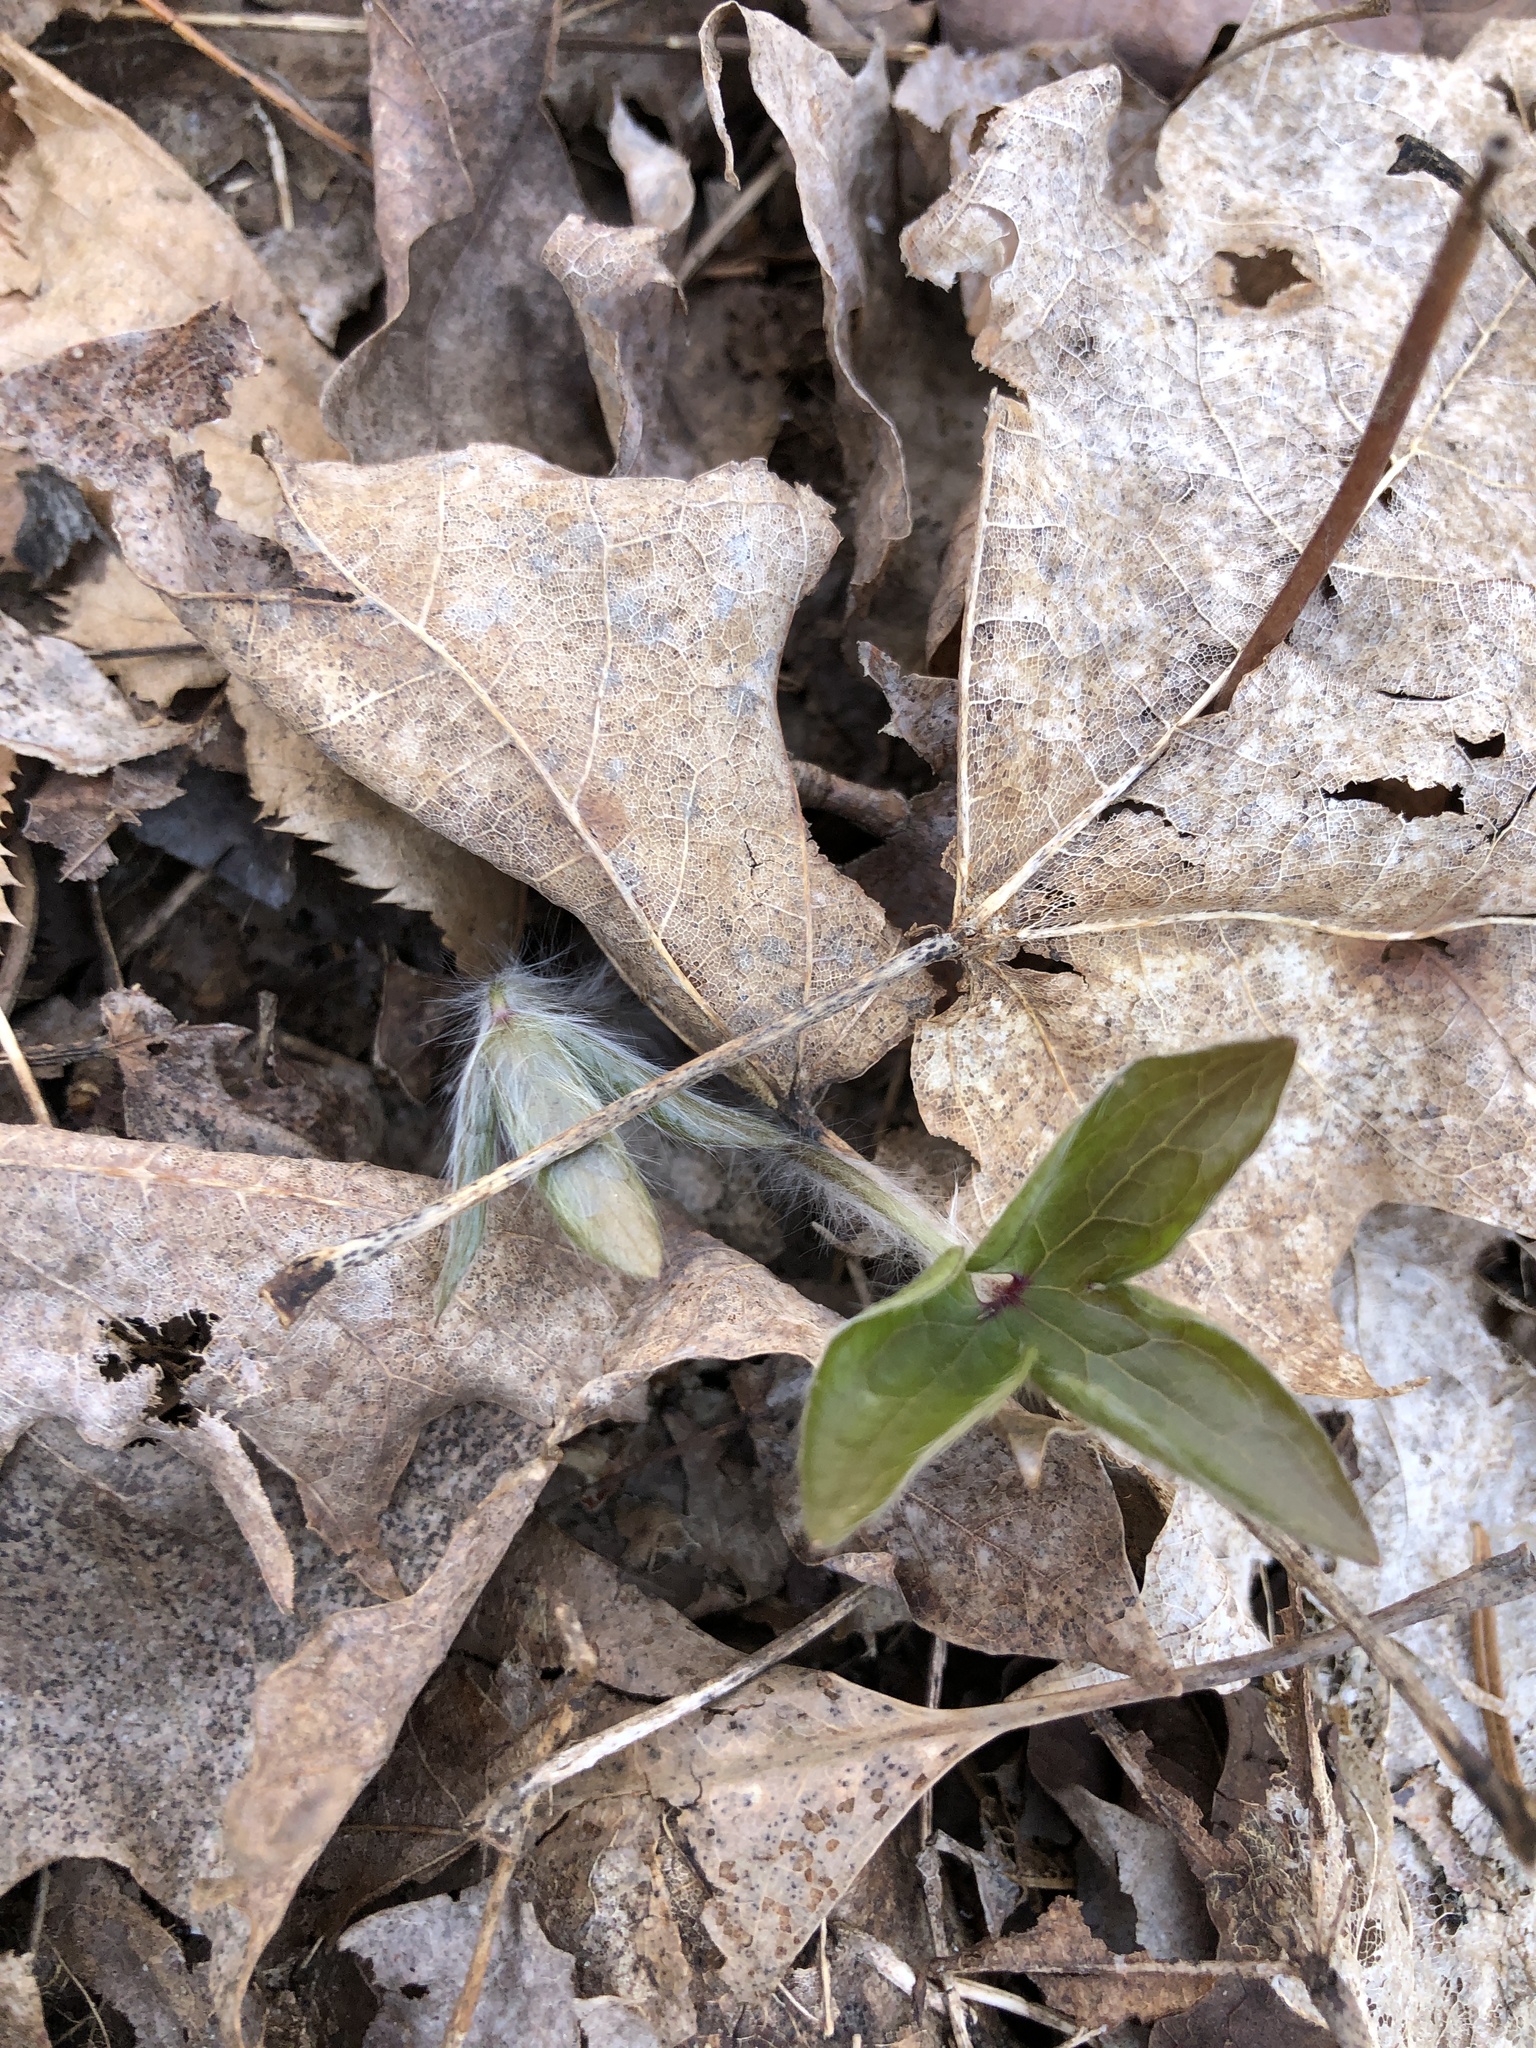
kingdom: Plantae
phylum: Tracheophyta
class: Magnoliopsida
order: Ranunculales
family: Ranunculaceae
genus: Hepatica
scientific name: Hepatica acutiloba
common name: Sharp-lobed hepatica
